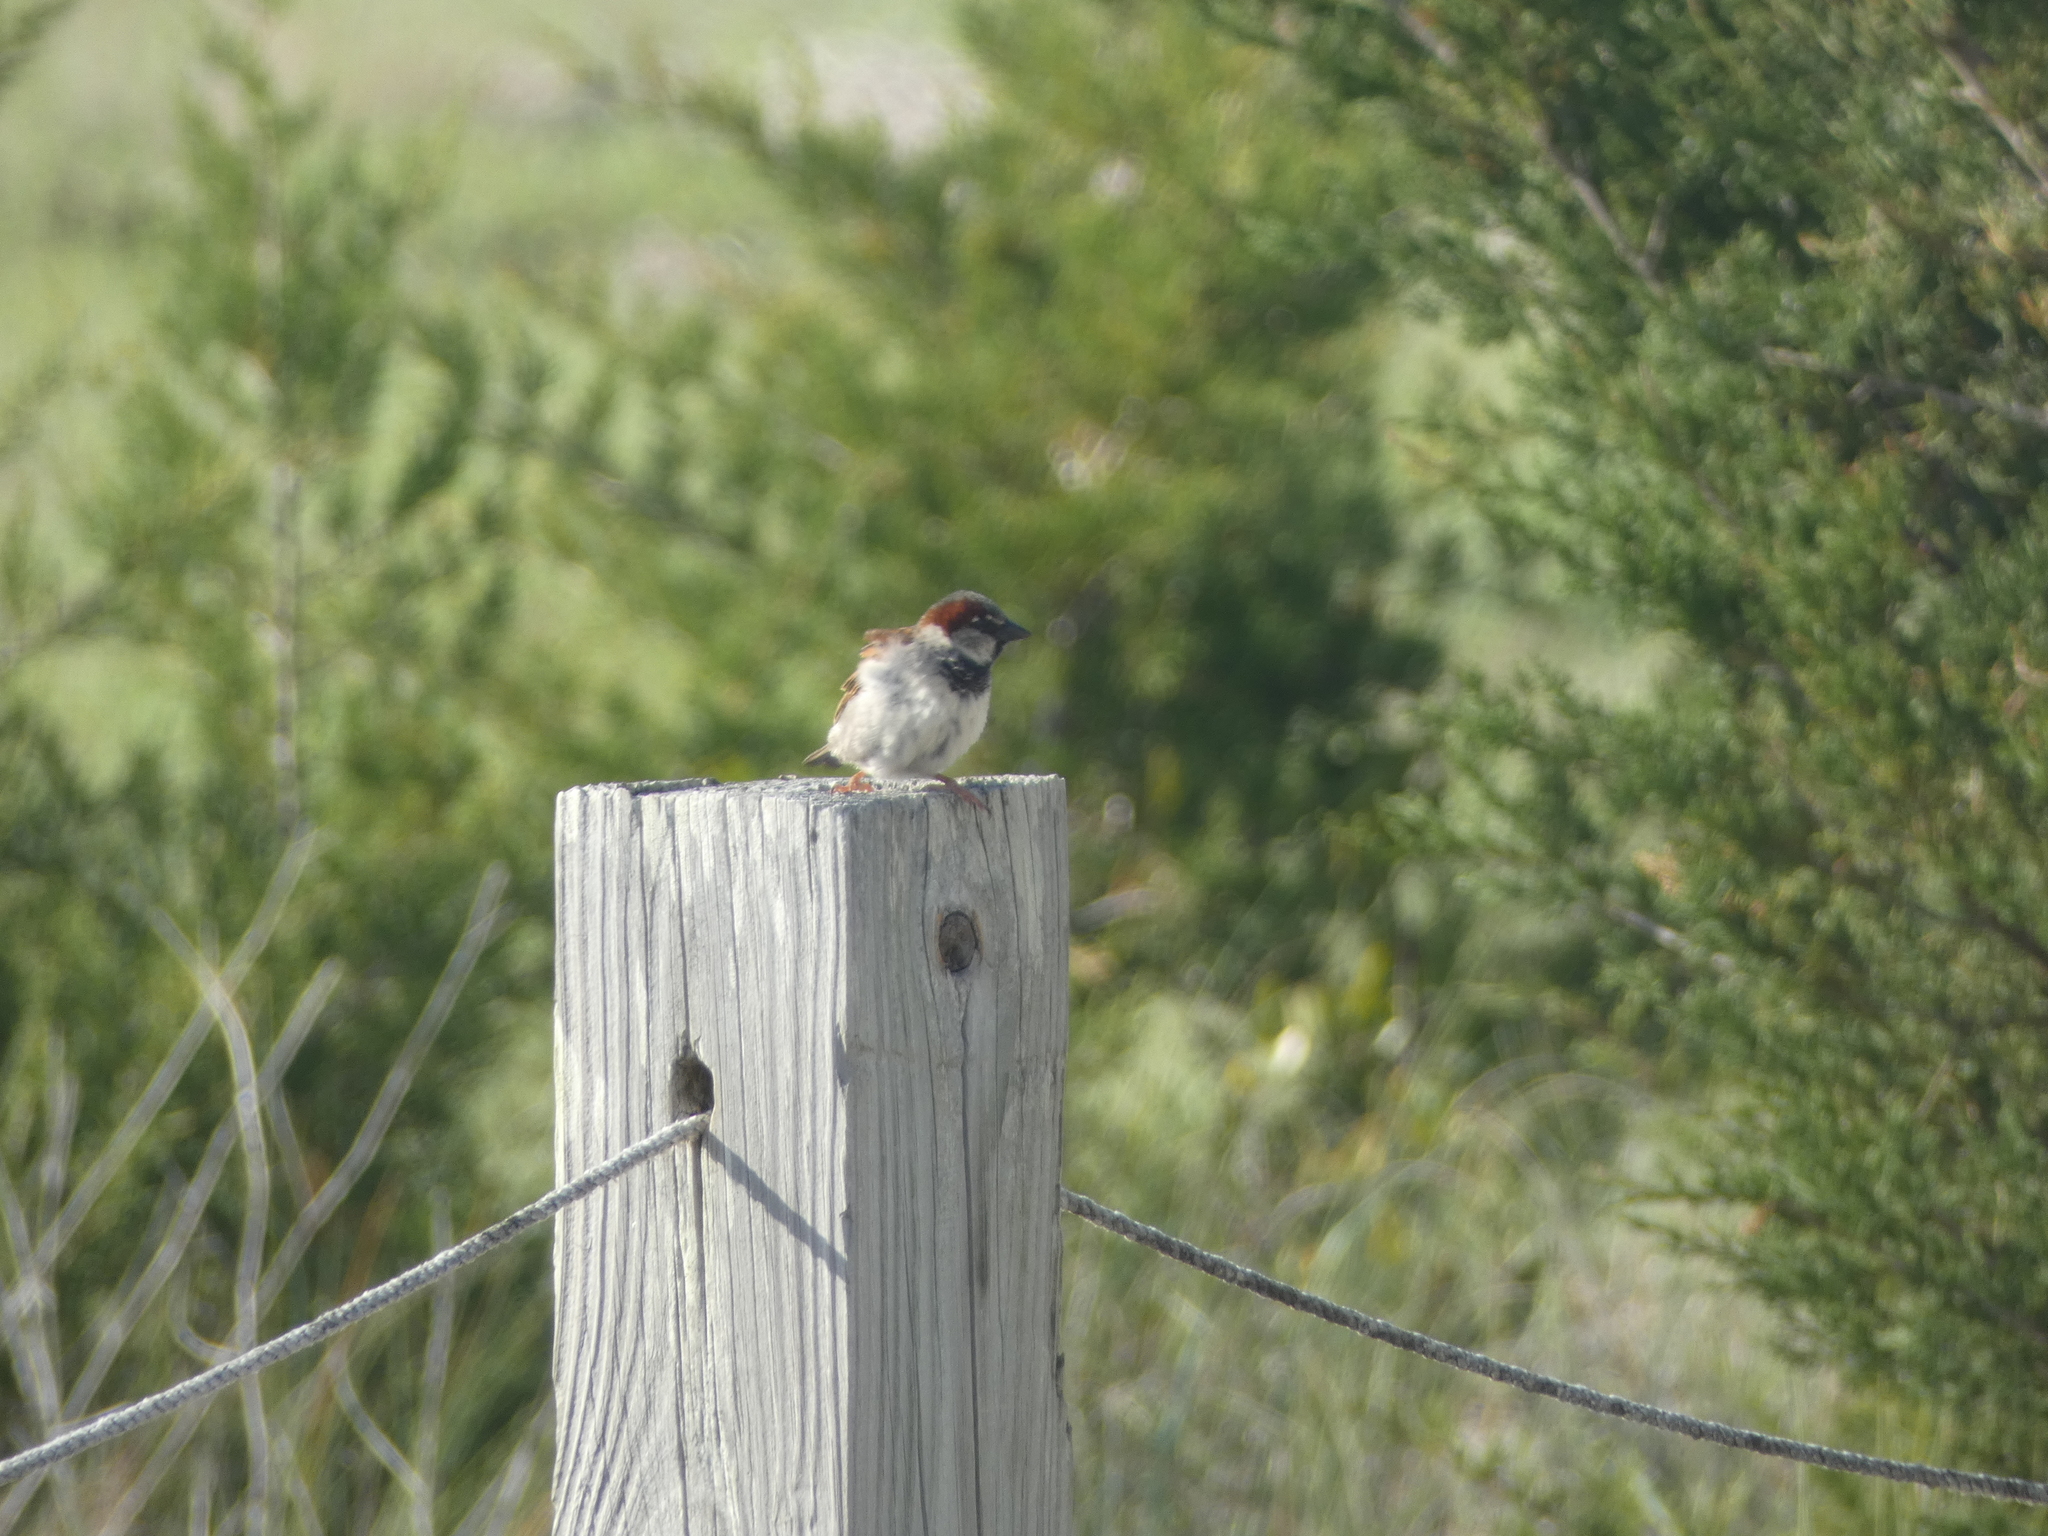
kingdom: Animalia
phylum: Chordata
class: Aves
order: Passeriformes
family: Passeridae
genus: Passer
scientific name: Passer domesticus
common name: House sparrow
